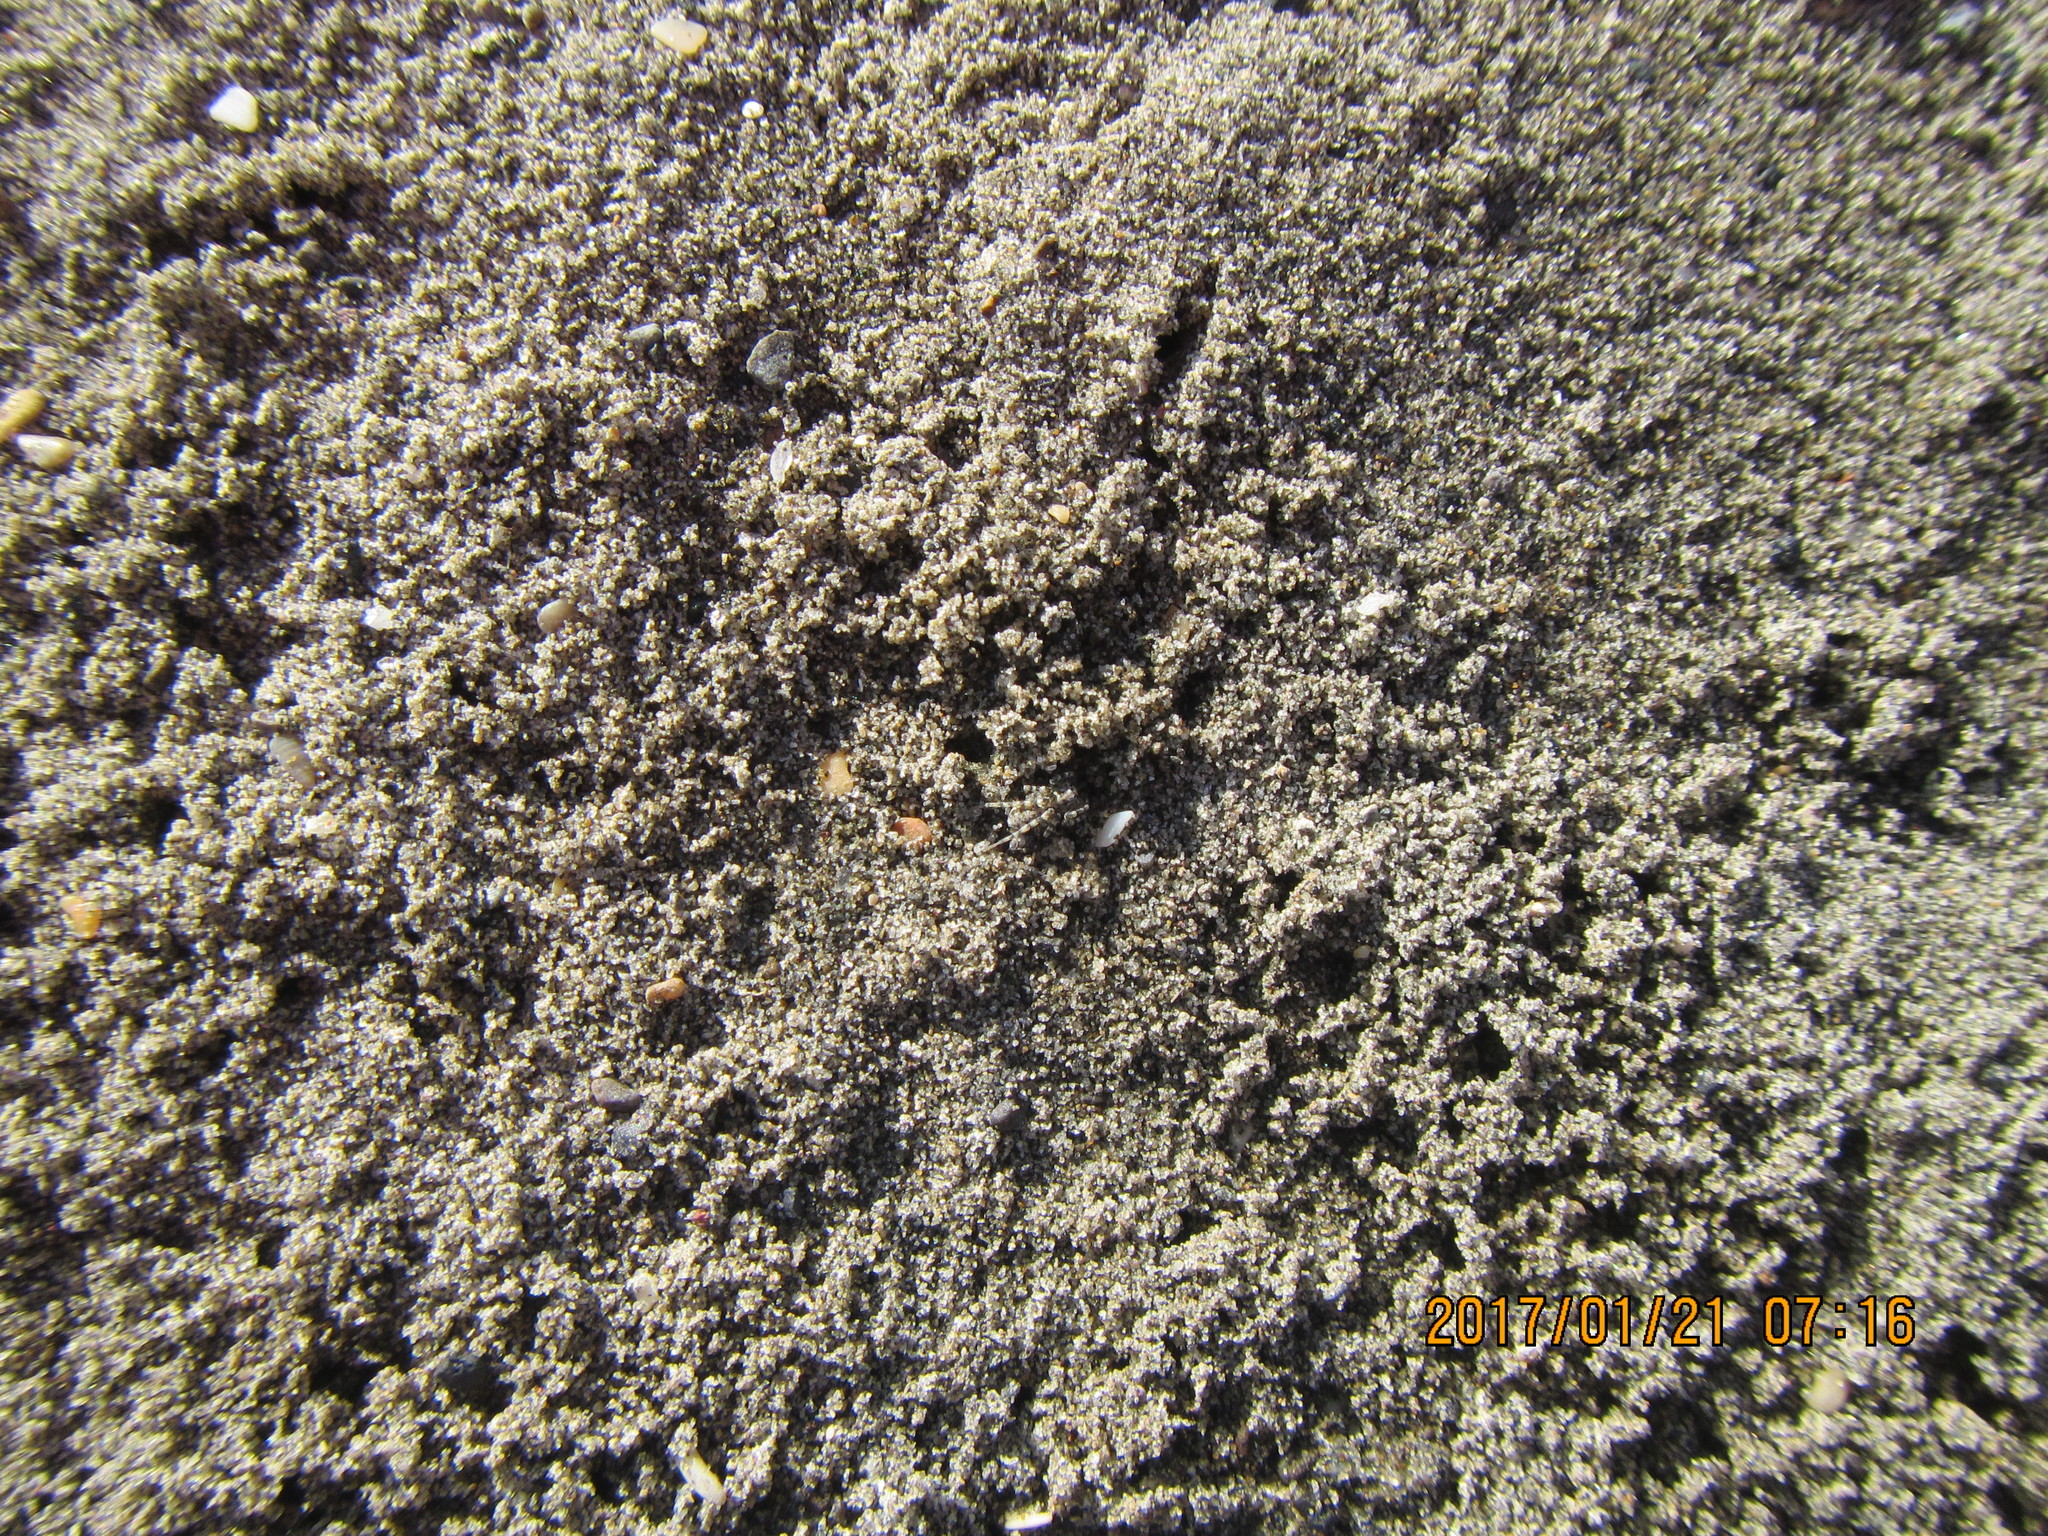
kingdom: Animalia
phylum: Arthropoda
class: Arachnida
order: Araneae
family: Lycosidae
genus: Anoteropsis
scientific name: Anoteropsis litoralis
